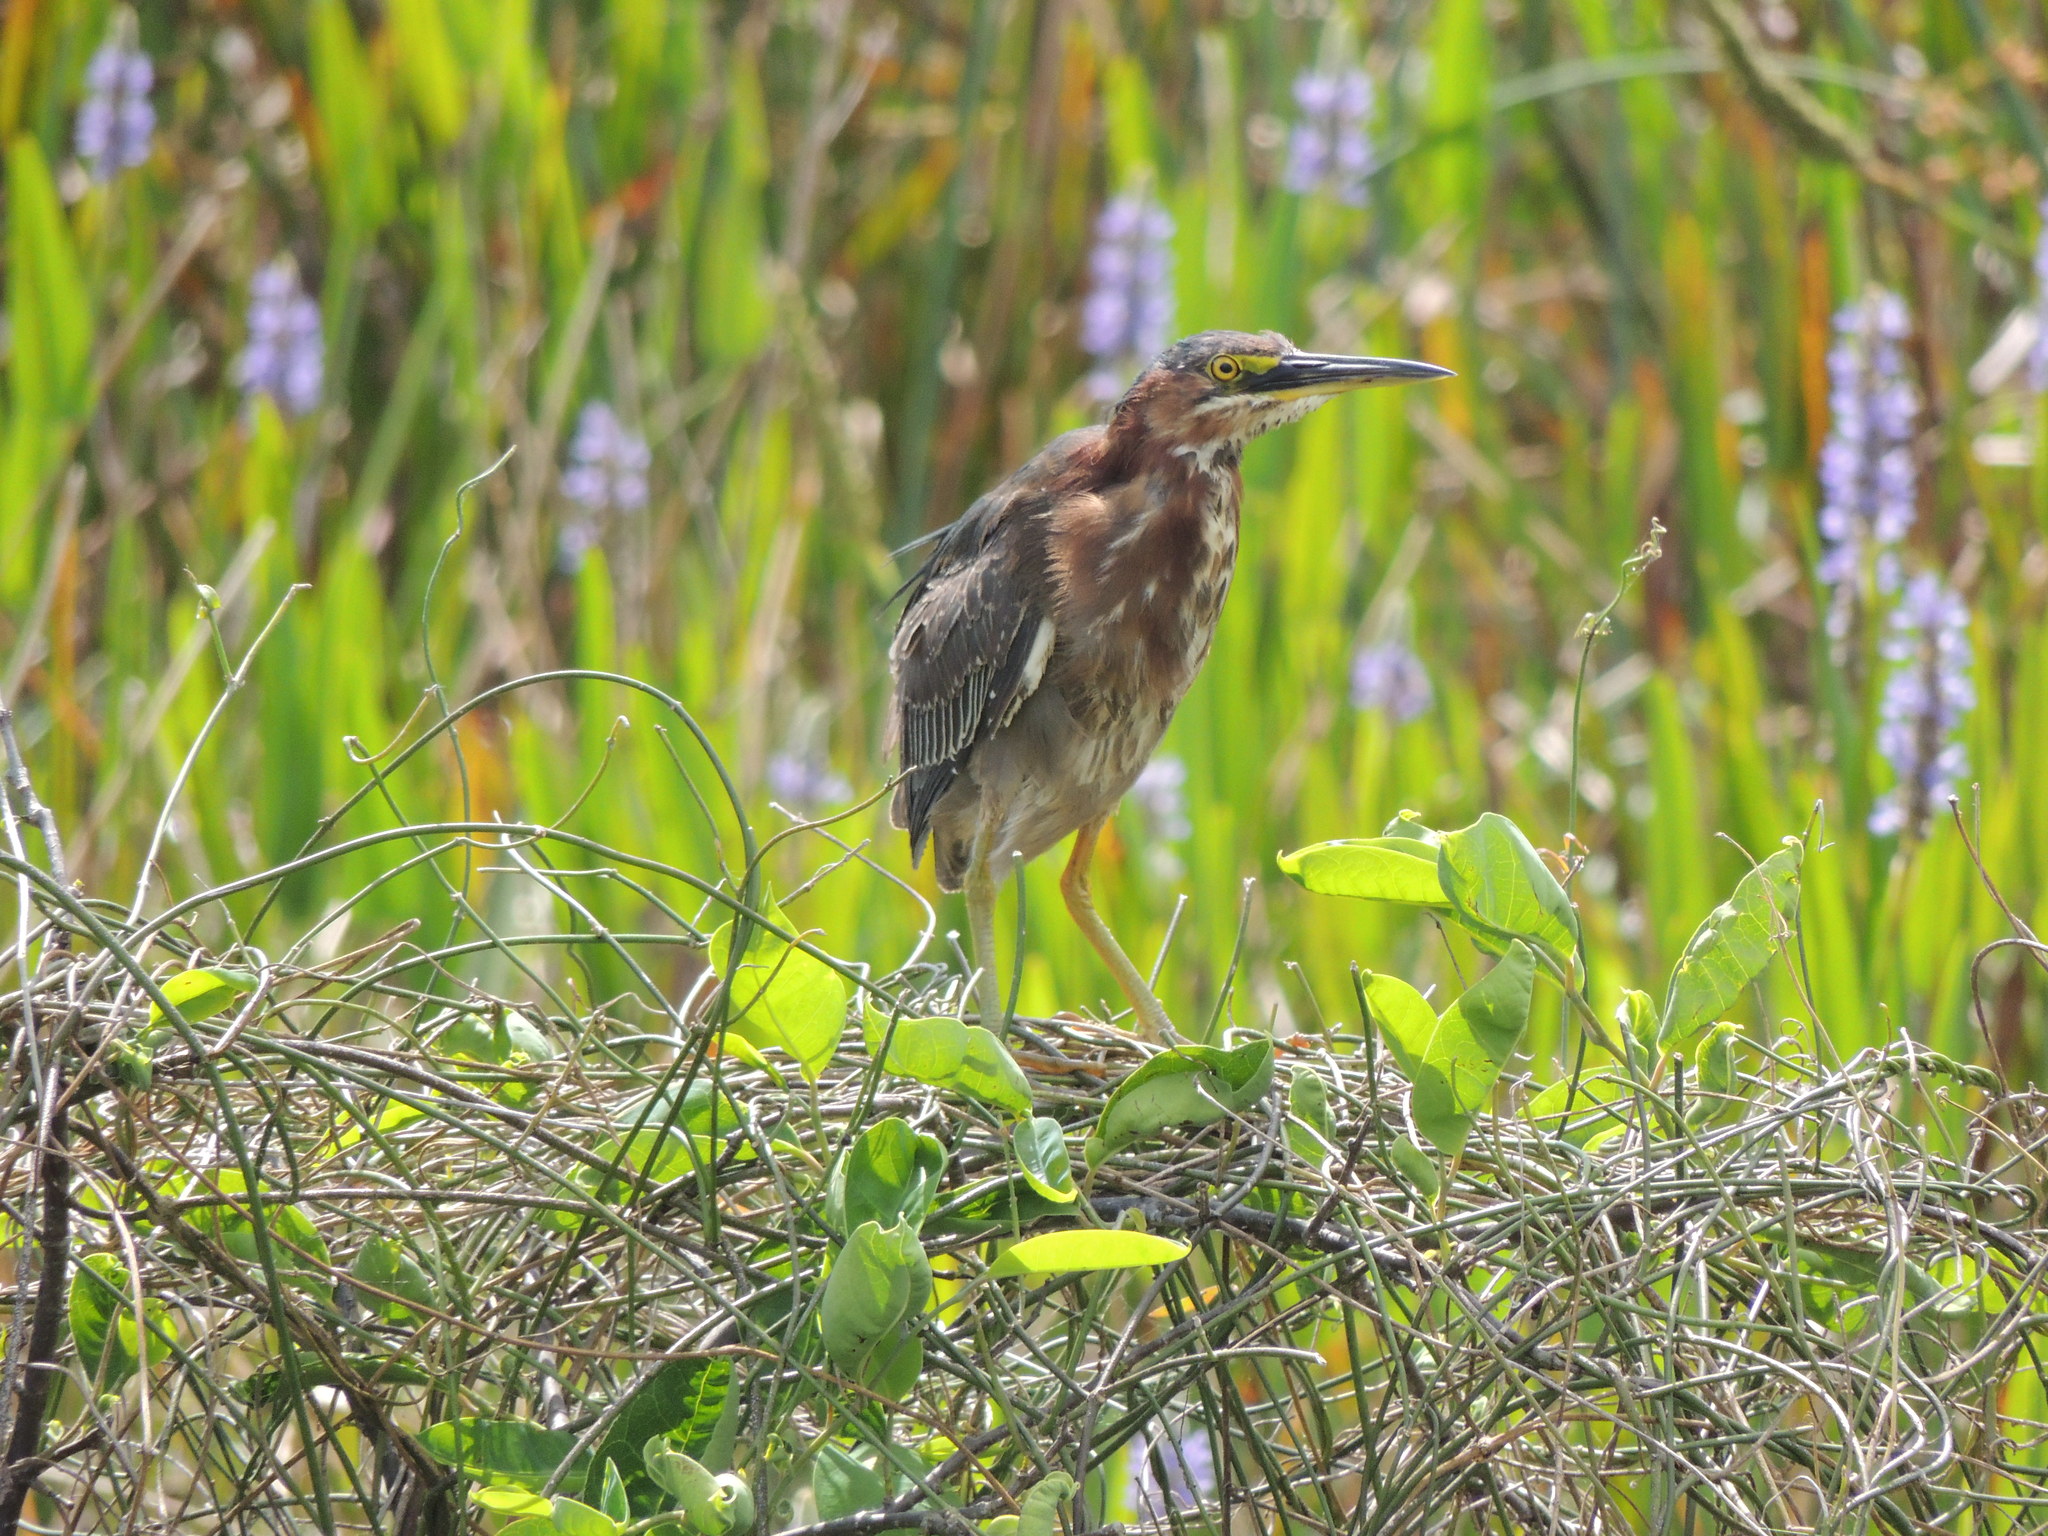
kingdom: Animalia
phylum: Chordata
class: Aves
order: Pelecaniformes
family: Ardeidae
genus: Butorides
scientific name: Butorides virescens
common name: Green heron
